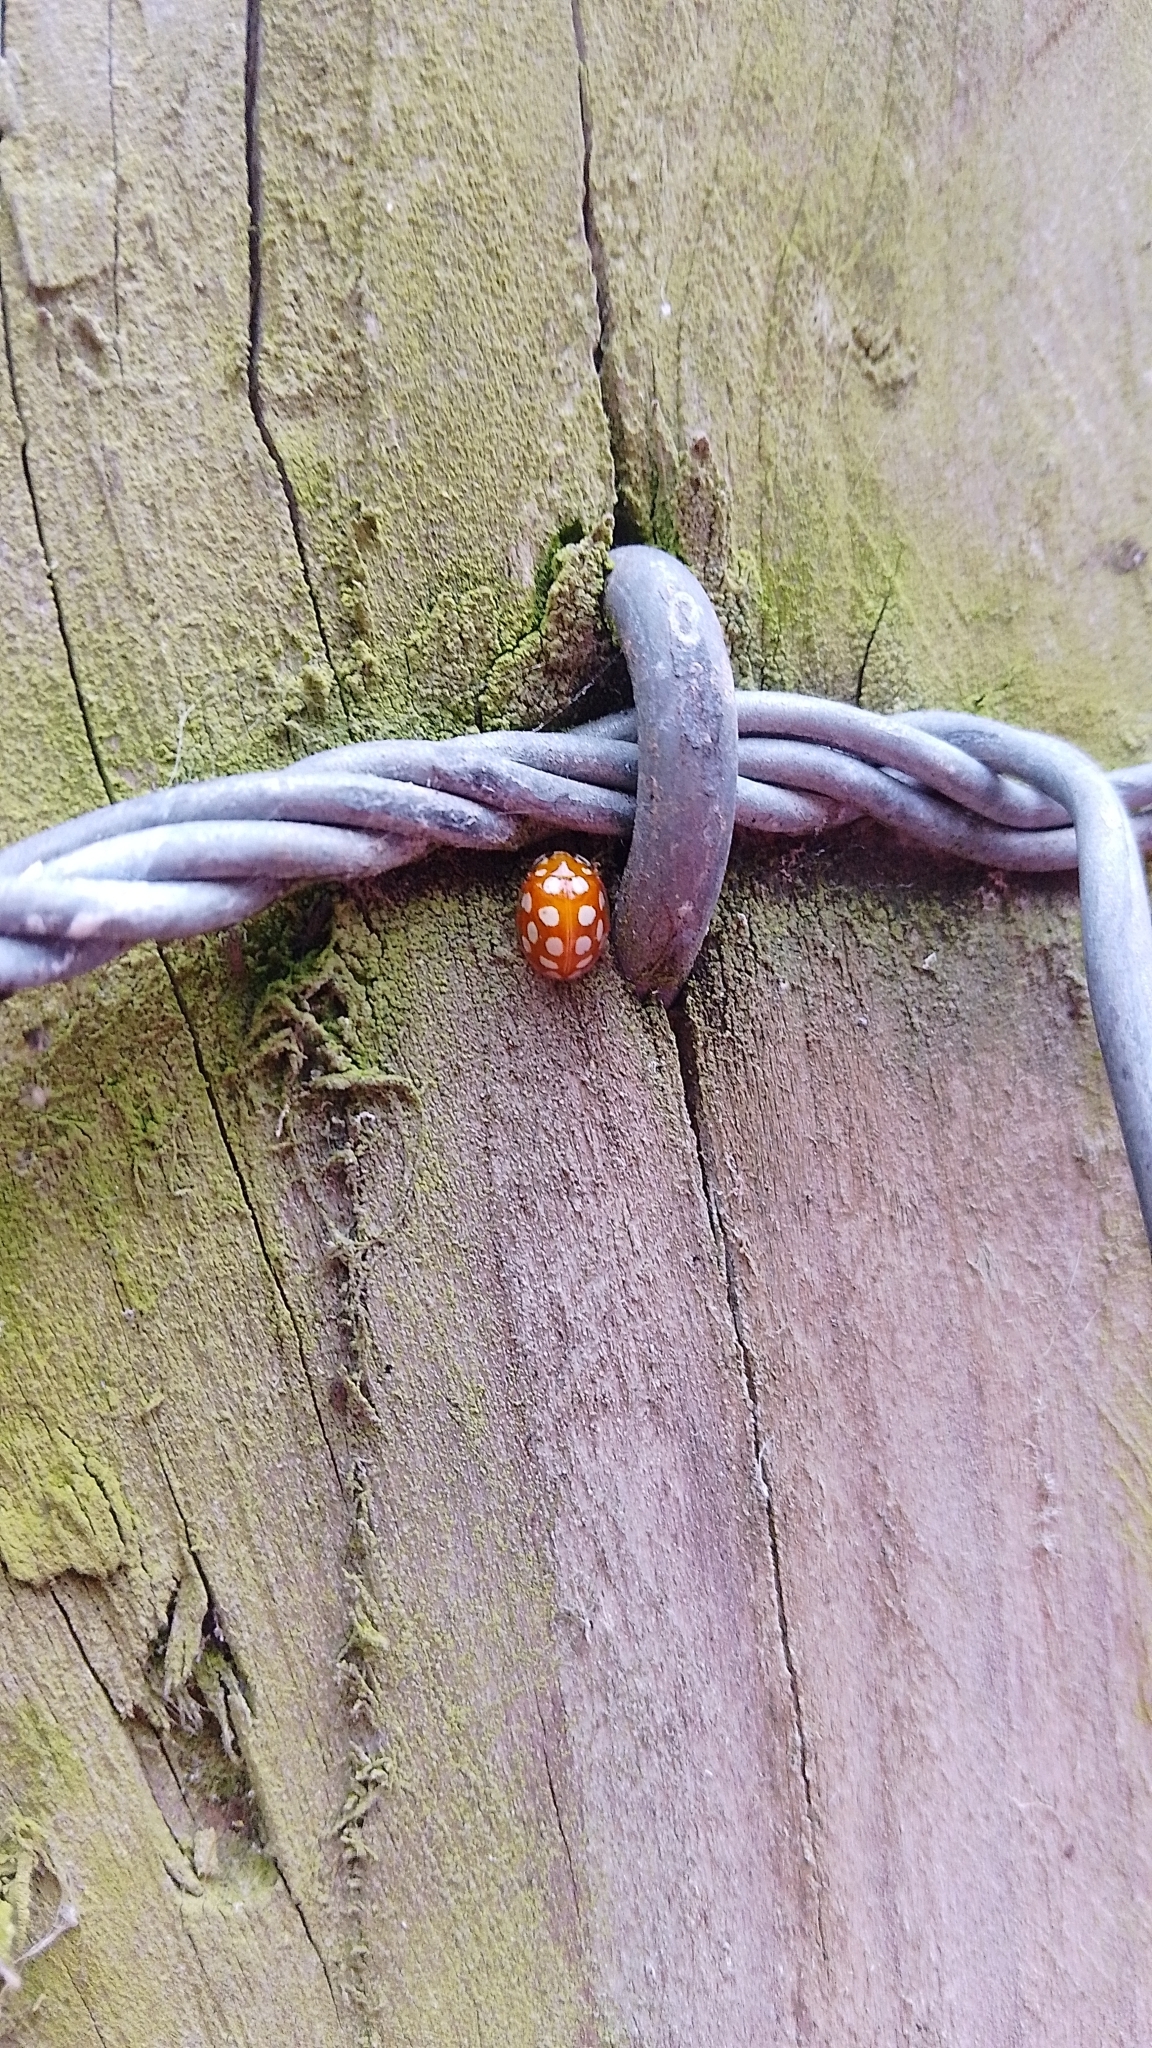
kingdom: Animalia
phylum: Arthropoda
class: Insecta
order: Coleoptera
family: Coccinellidae
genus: Halyzia
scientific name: Halyzia sedecimguttata
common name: Orange ladybird
